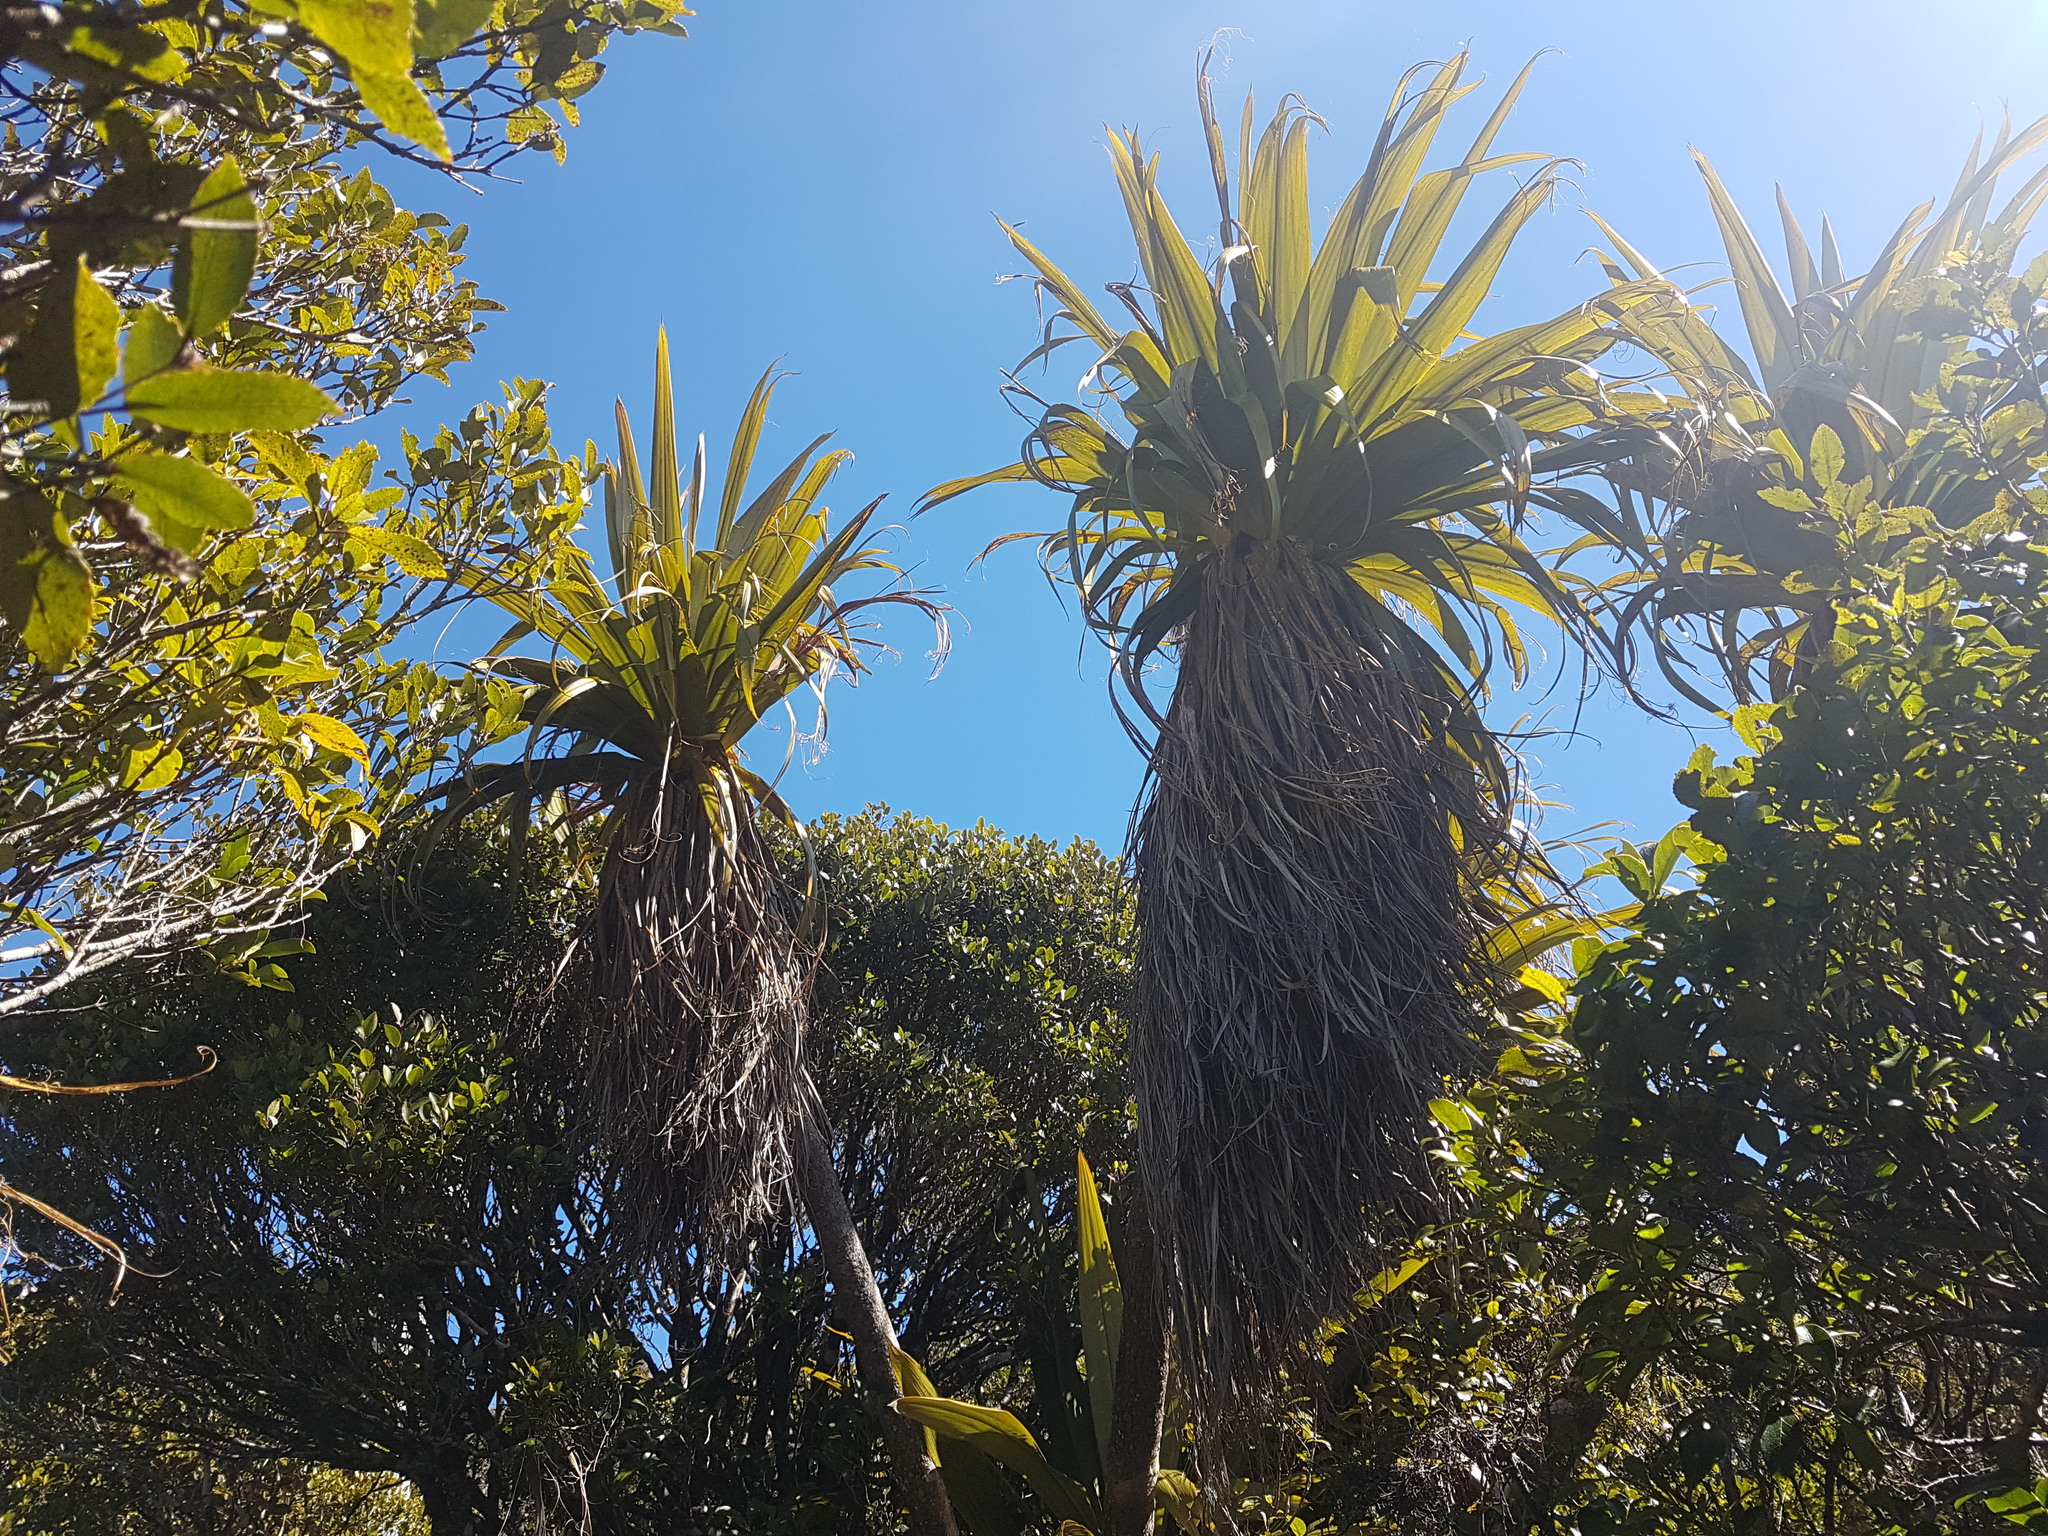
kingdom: Plantae
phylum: Tracheophyta
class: Liliopsida
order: Asparagales
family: Asparagaceae
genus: Cordyline
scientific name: Cordyline indivisa
